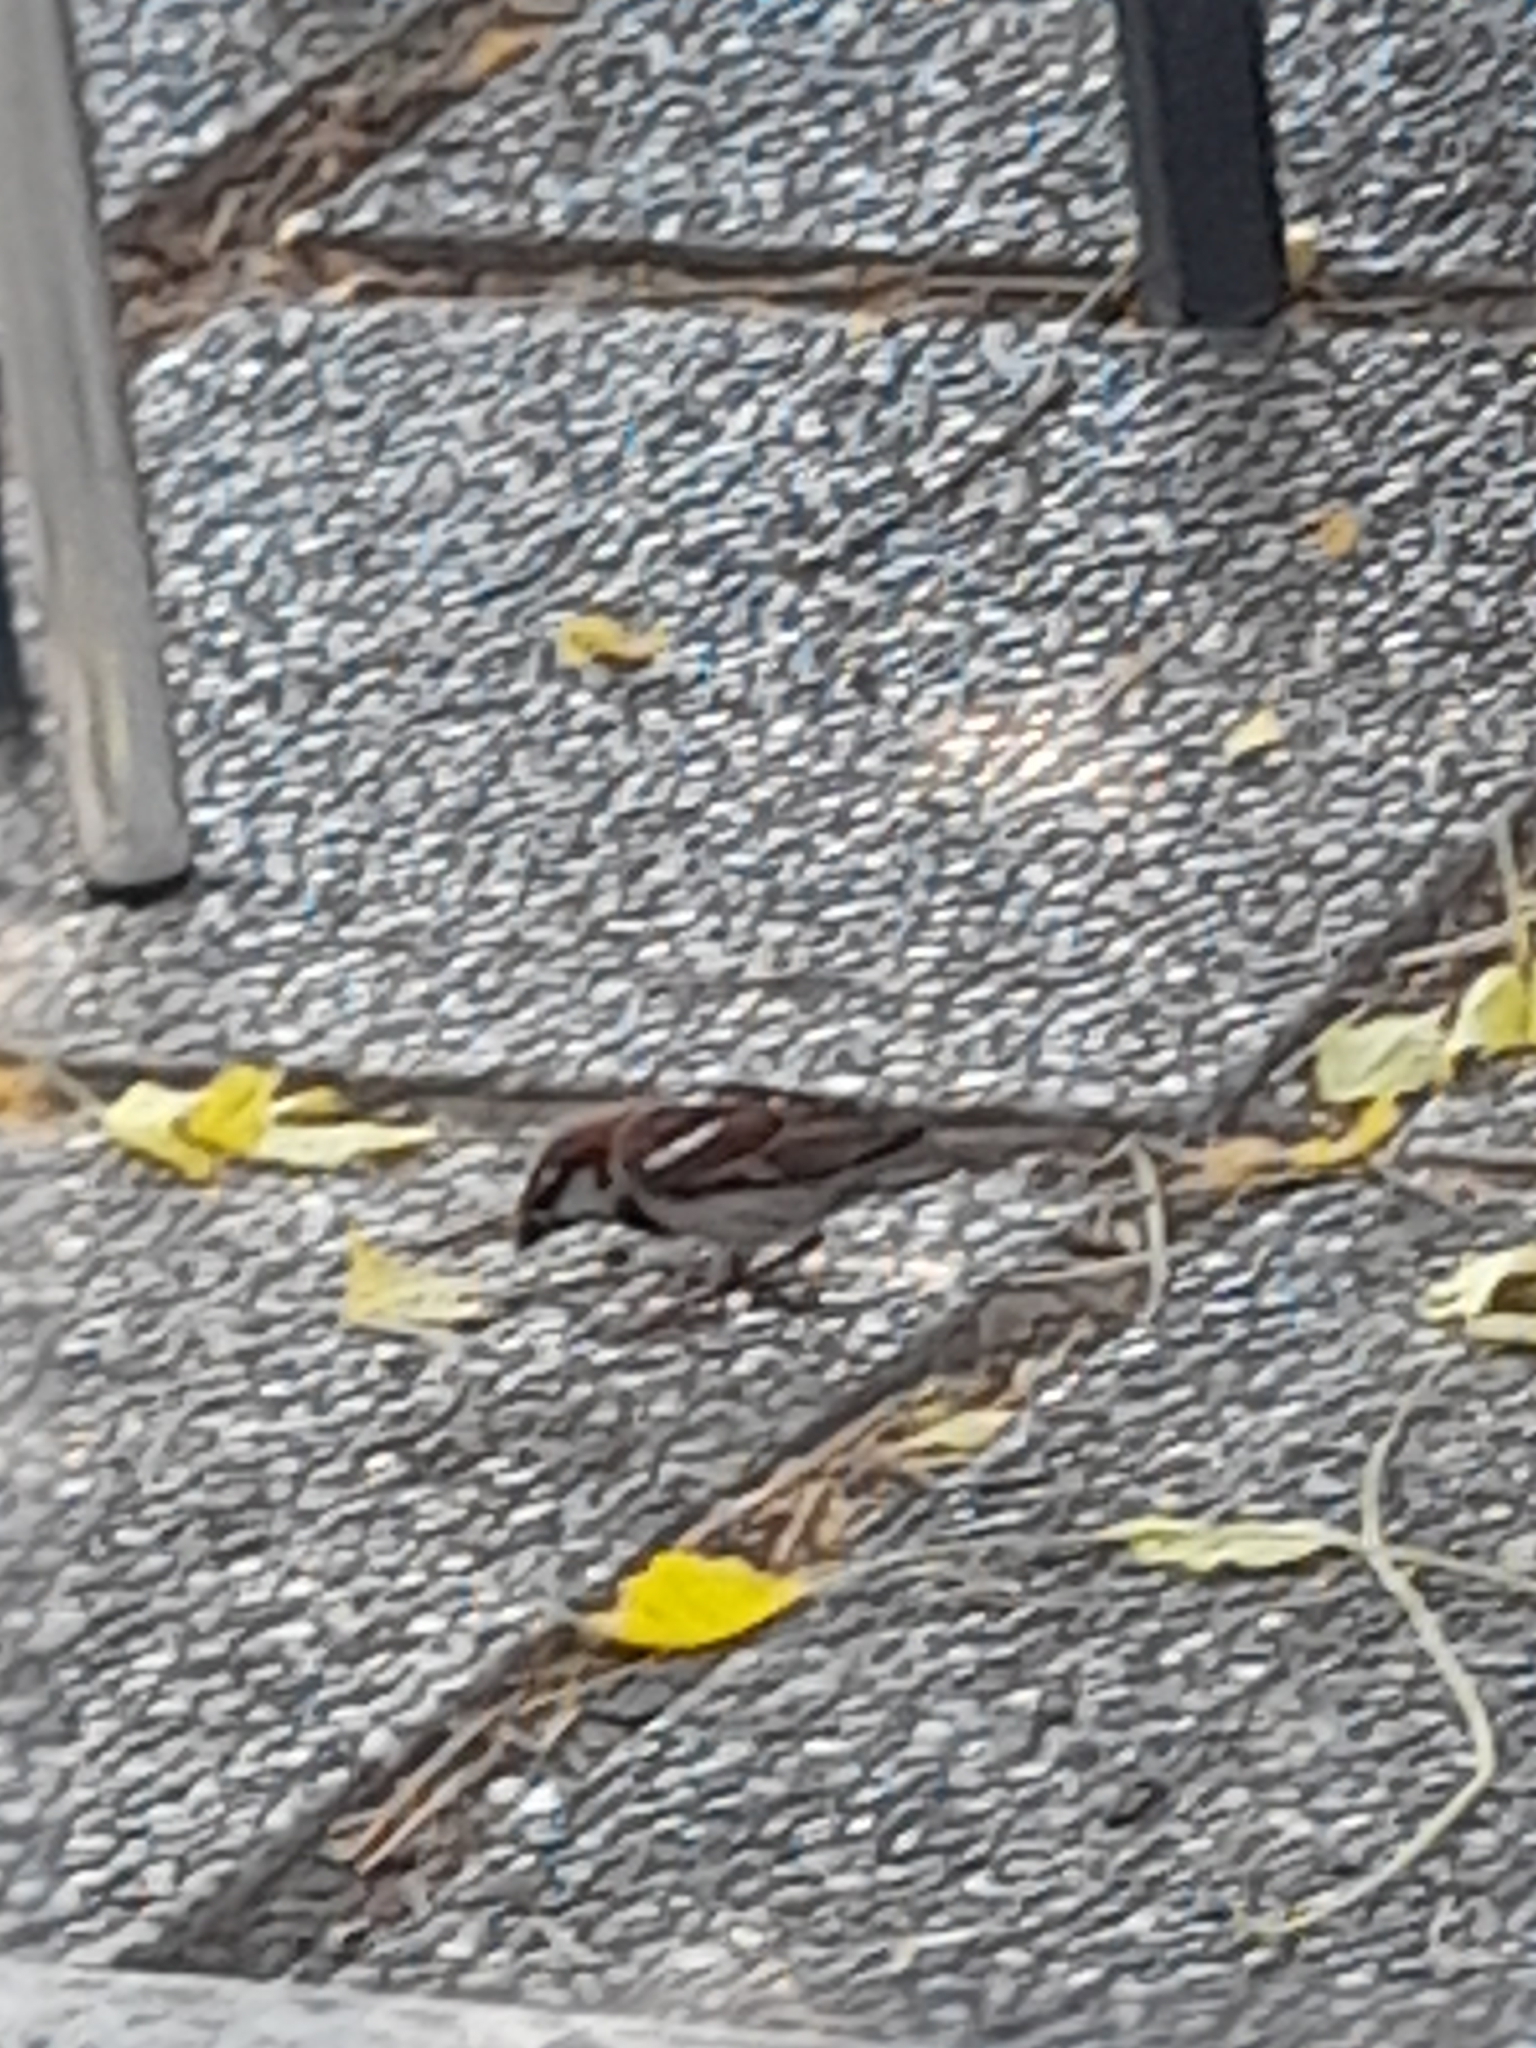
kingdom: Animalia
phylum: Chordata
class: Aves
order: Passeriformes
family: Passeridae
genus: Passer
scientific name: Passer italiae
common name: Italian sparrow
